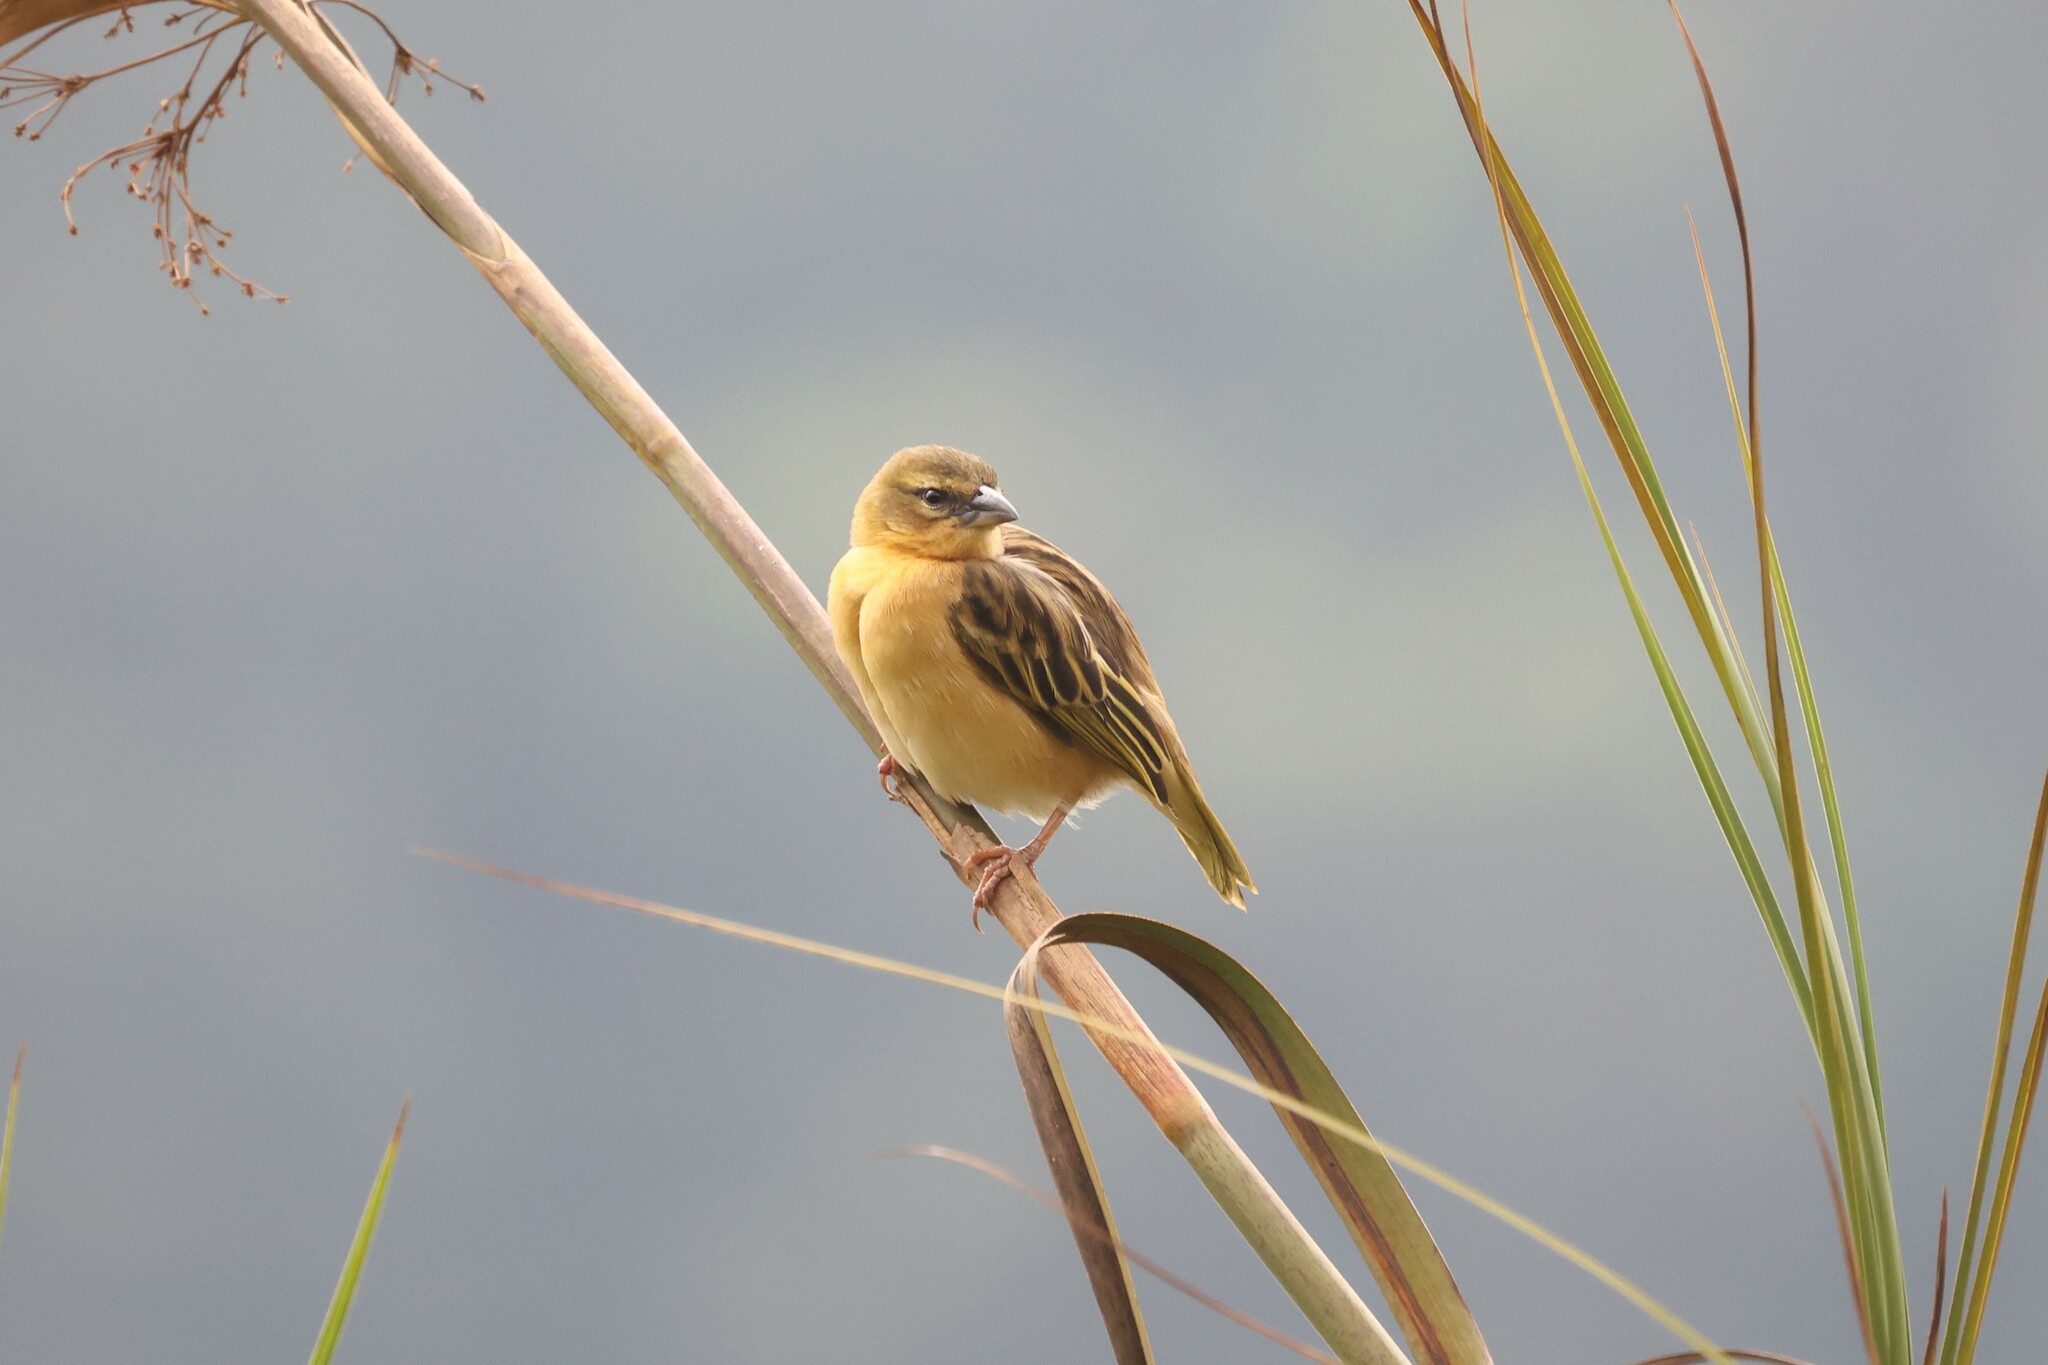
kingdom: Animalia
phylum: Chordata
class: Aves
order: Passeriformes
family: Ploceidae
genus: Ploceus
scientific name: Ploceus melanocephalus
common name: Black-headed weaver
